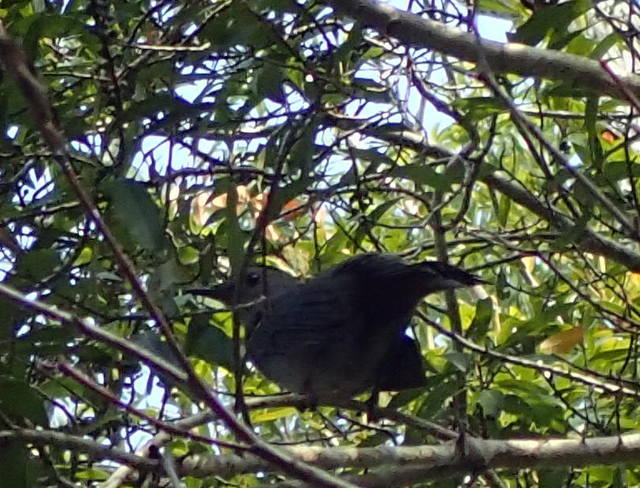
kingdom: Animalia
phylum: Chordata
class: Aves
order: Passeriformes
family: Mimidae
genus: Dumetella
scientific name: Dumetella carolinensis
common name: Gray catbird
